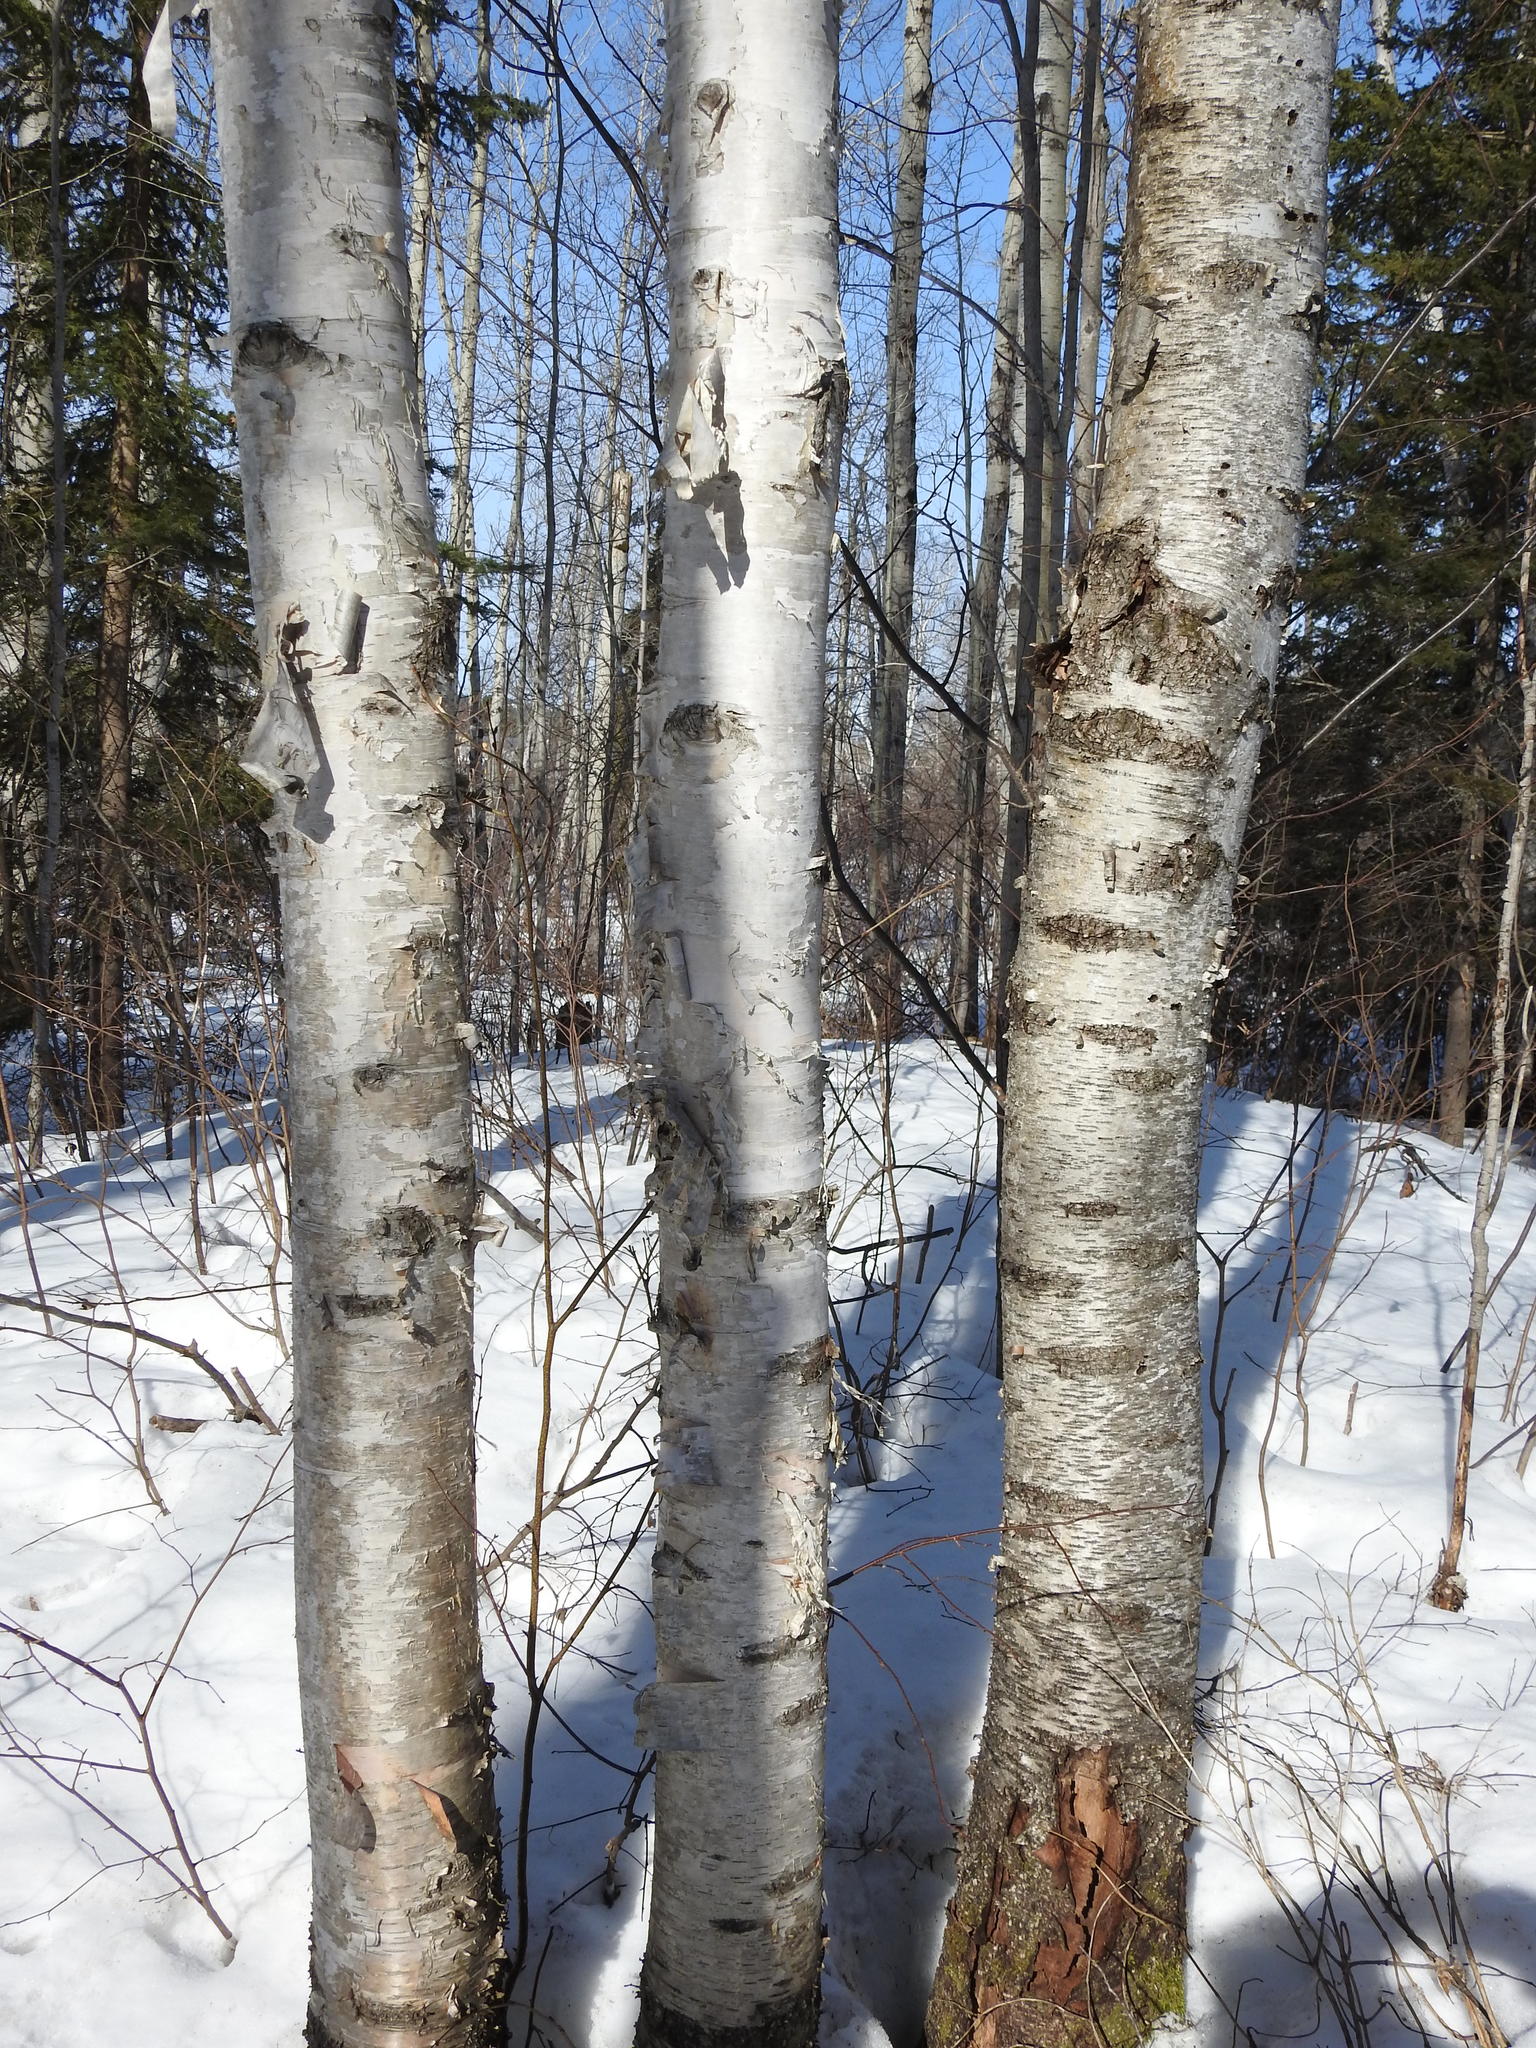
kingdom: Plantae
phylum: Tracheophyta
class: Magnoliopsida
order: Fagales
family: Betulaceae
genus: Betula
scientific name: Betula papyrifera
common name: Paper birch
